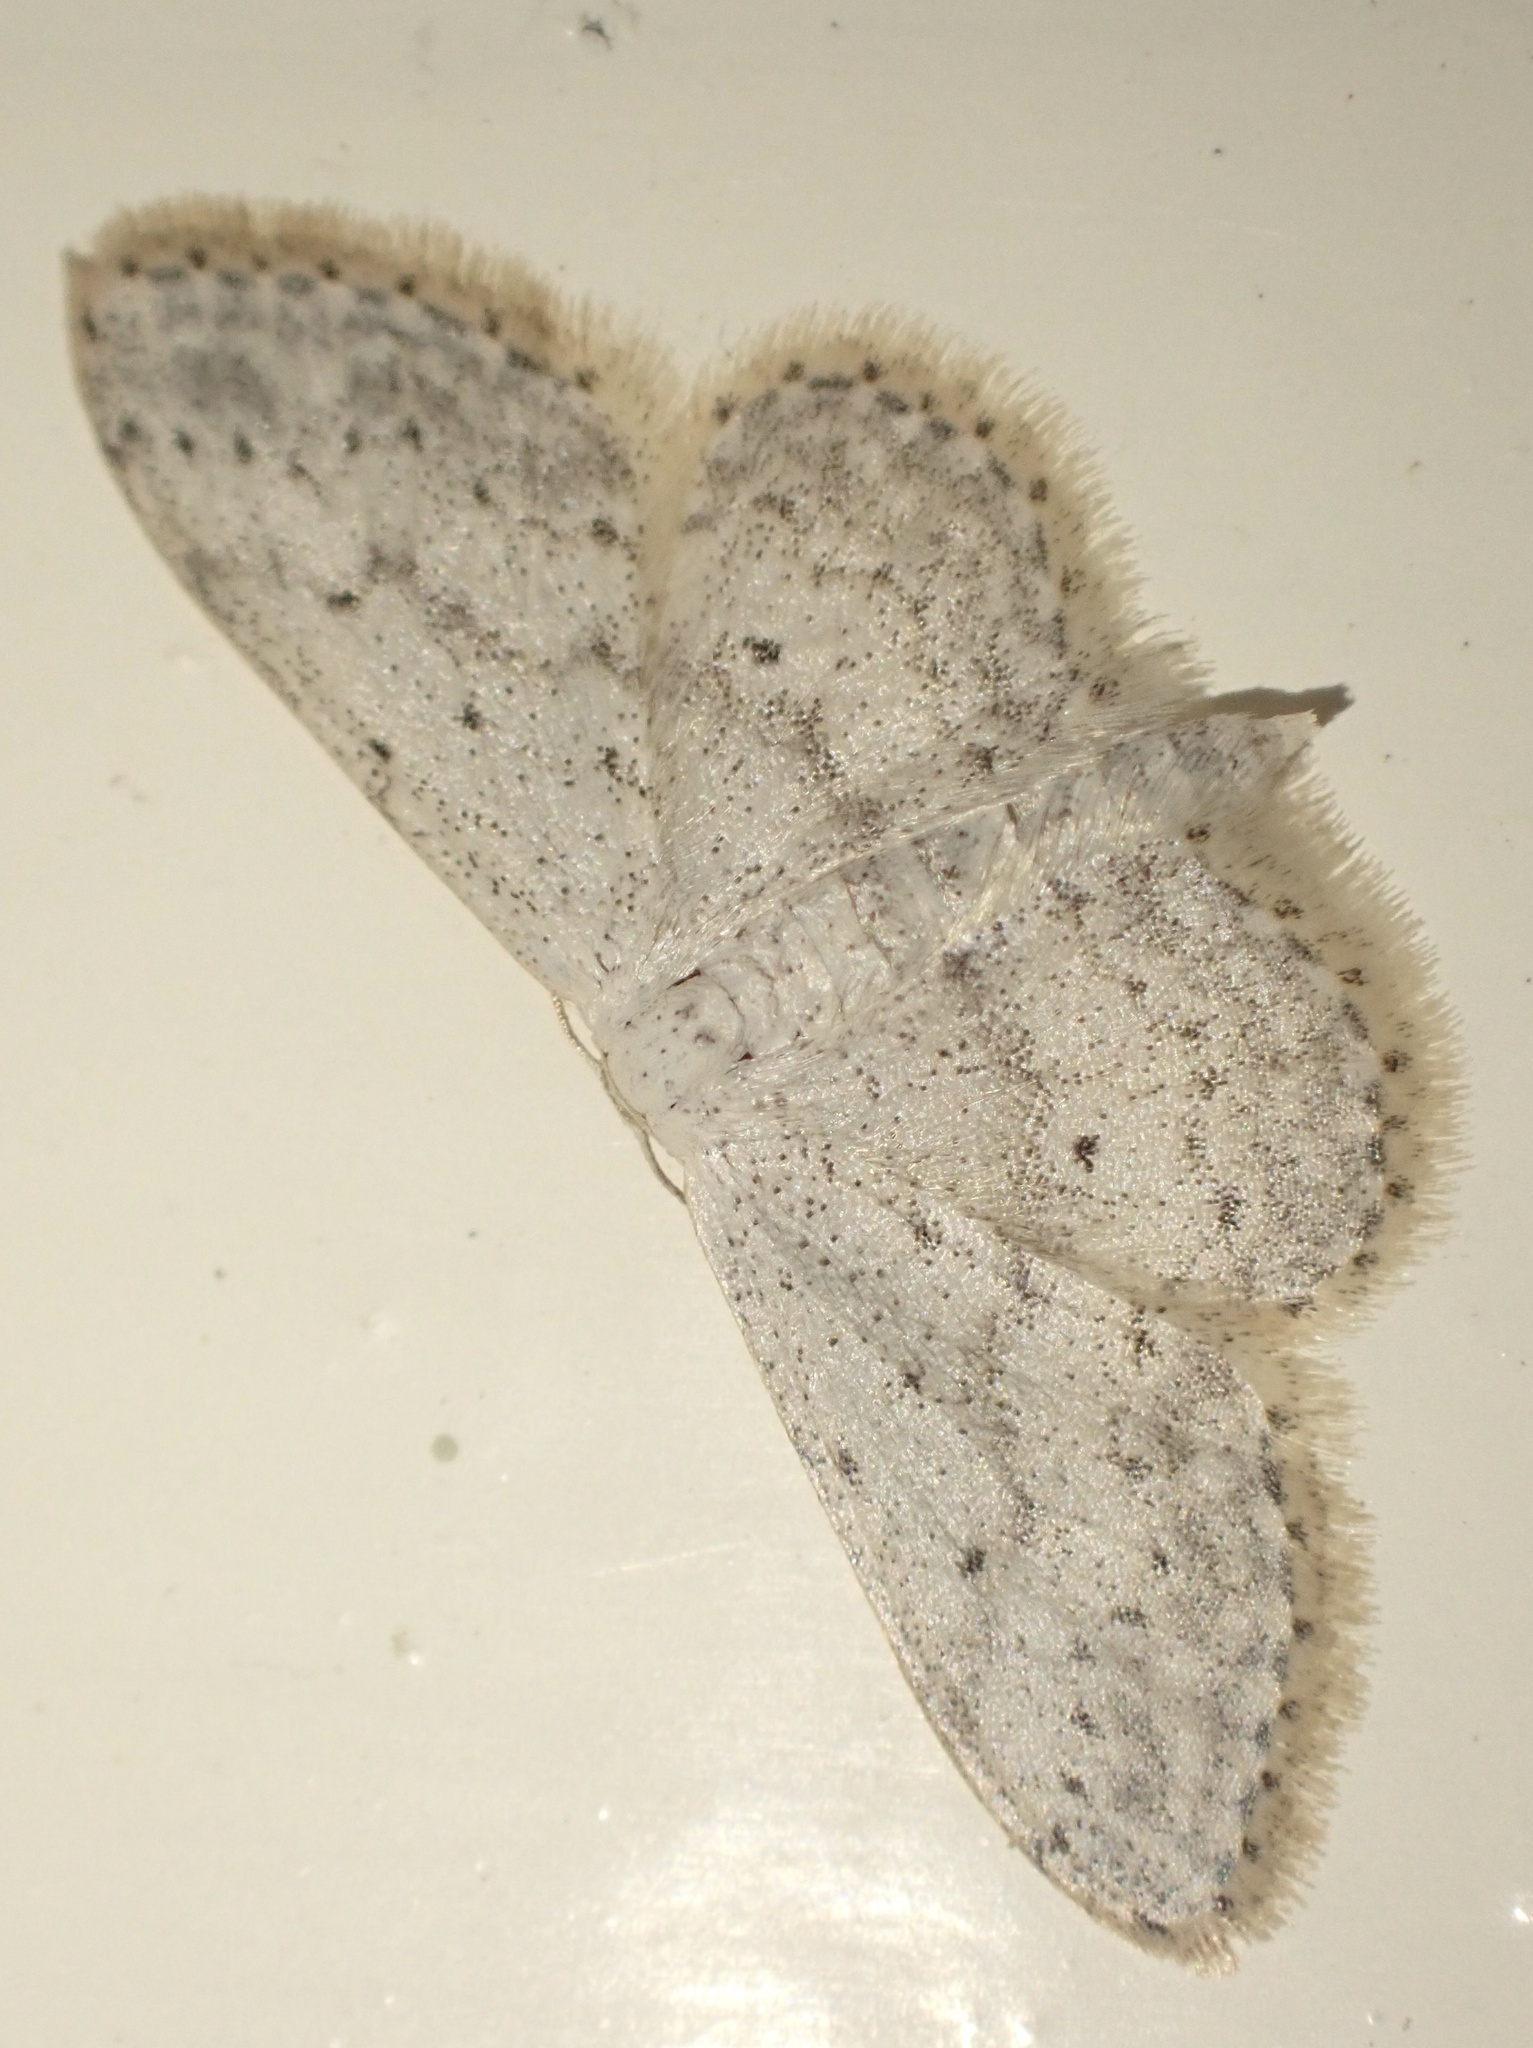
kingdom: Animalia
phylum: Arthropoda
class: Insecta
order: Lepidoptera
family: Geometridae
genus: Idaea
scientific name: Idaea seriata
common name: Small dusty wave
